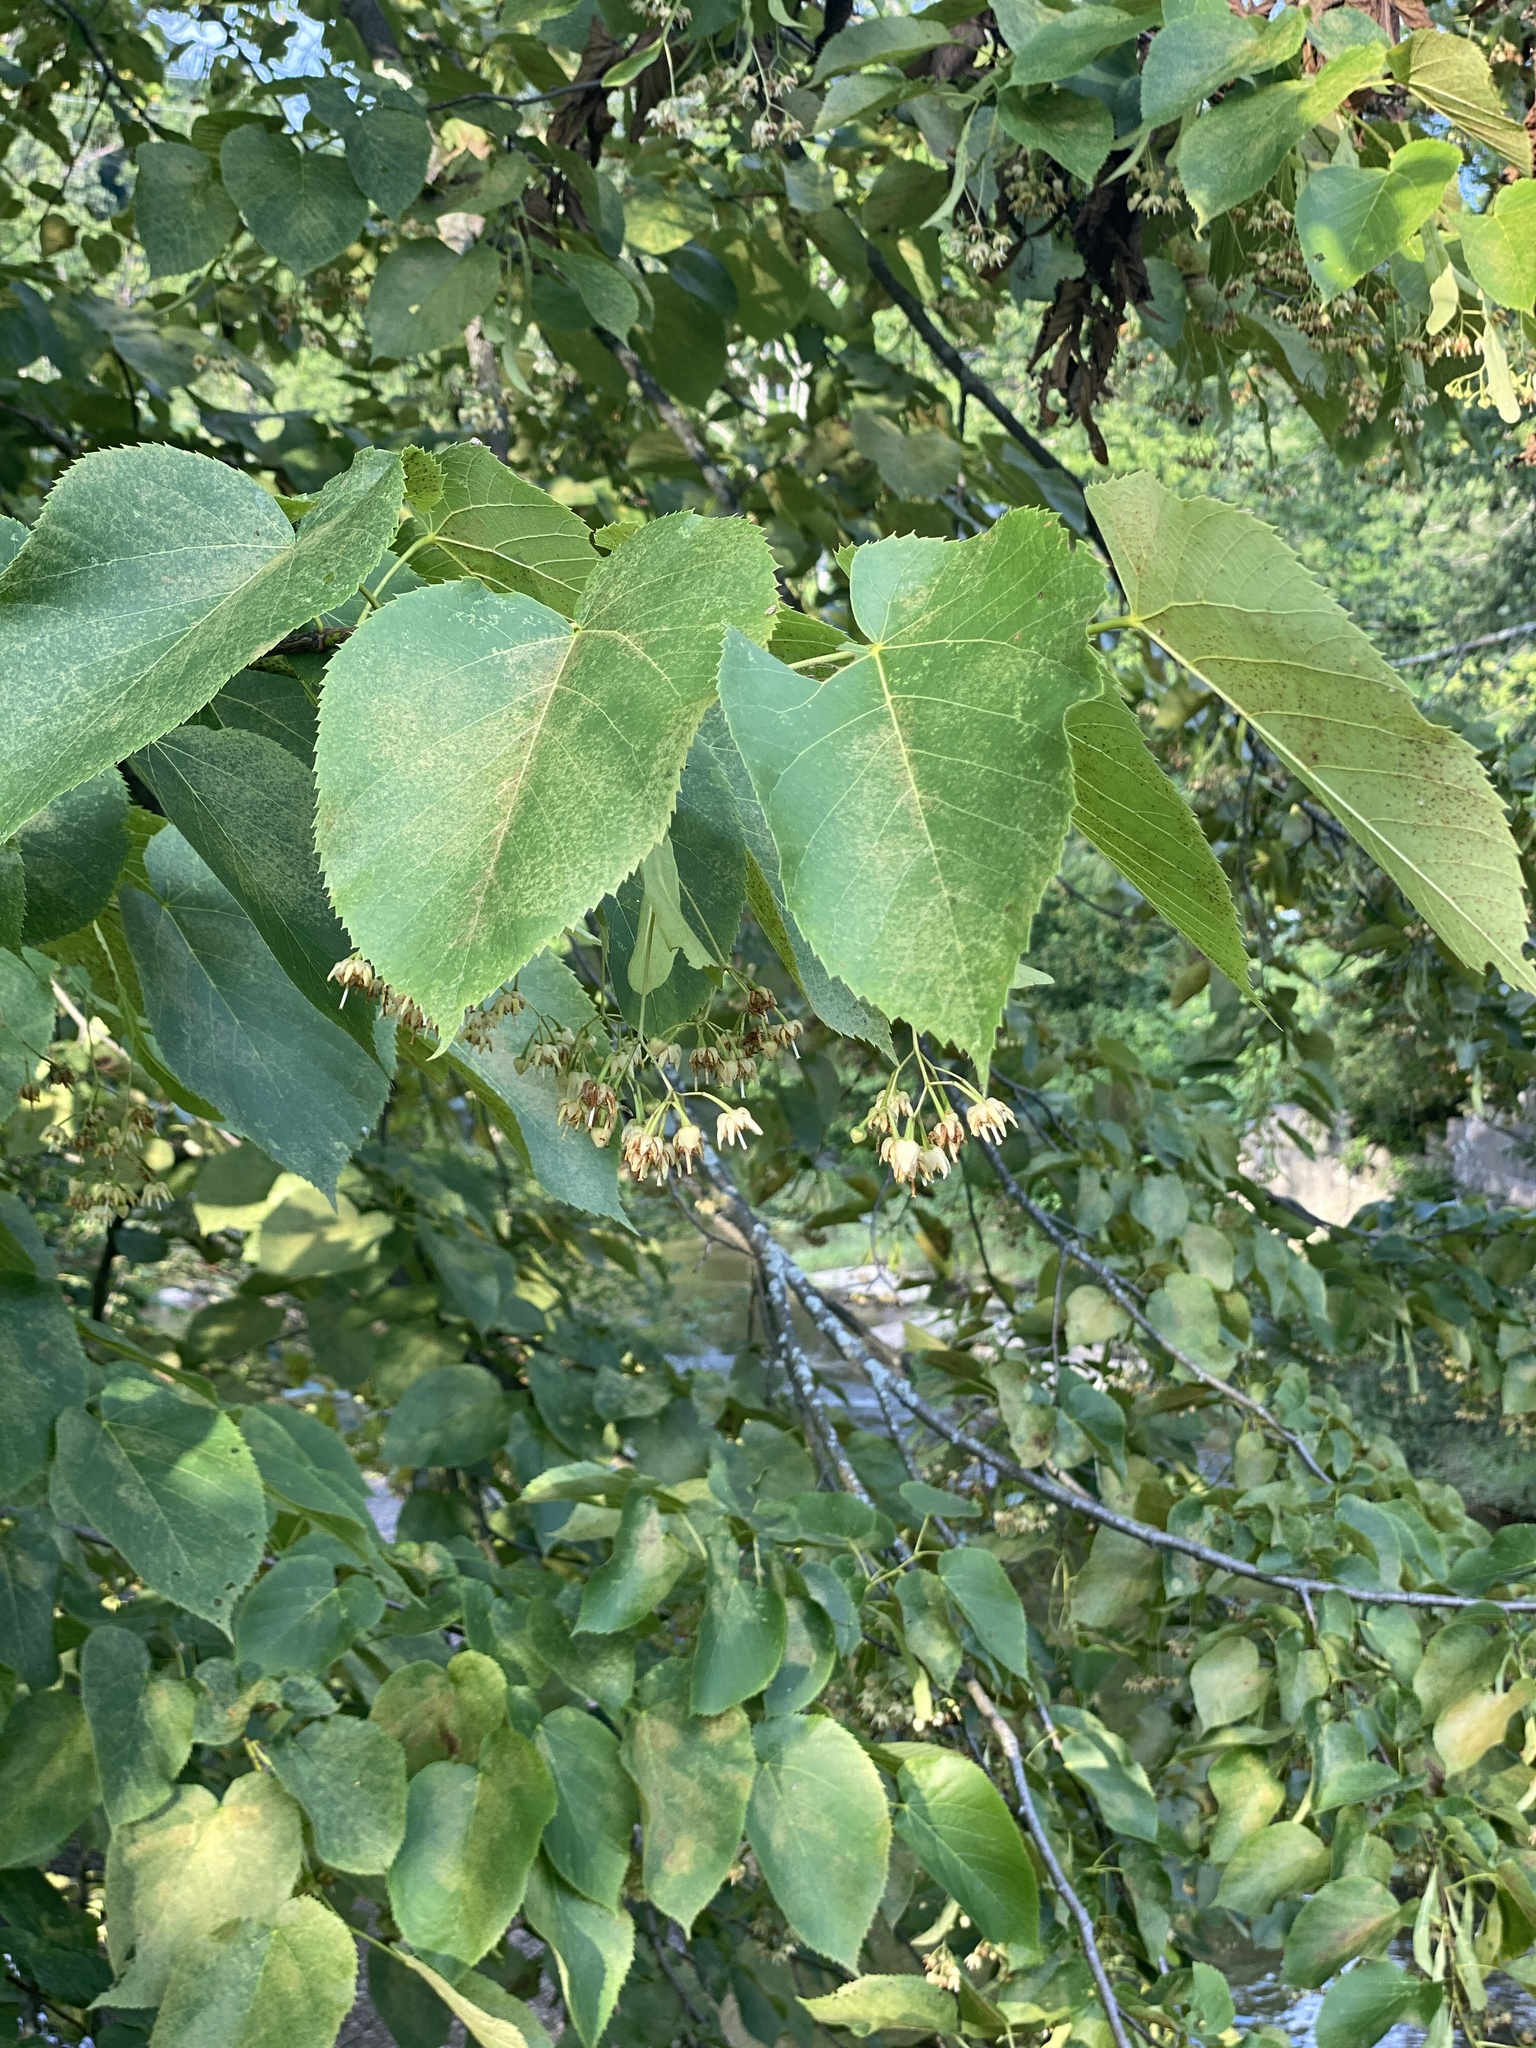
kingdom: Plantae
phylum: Tracheophyta
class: Magnoliopsida
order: Malvales
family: Malvaceae
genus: Tilia
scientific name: Tilia americana
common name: Basswood
